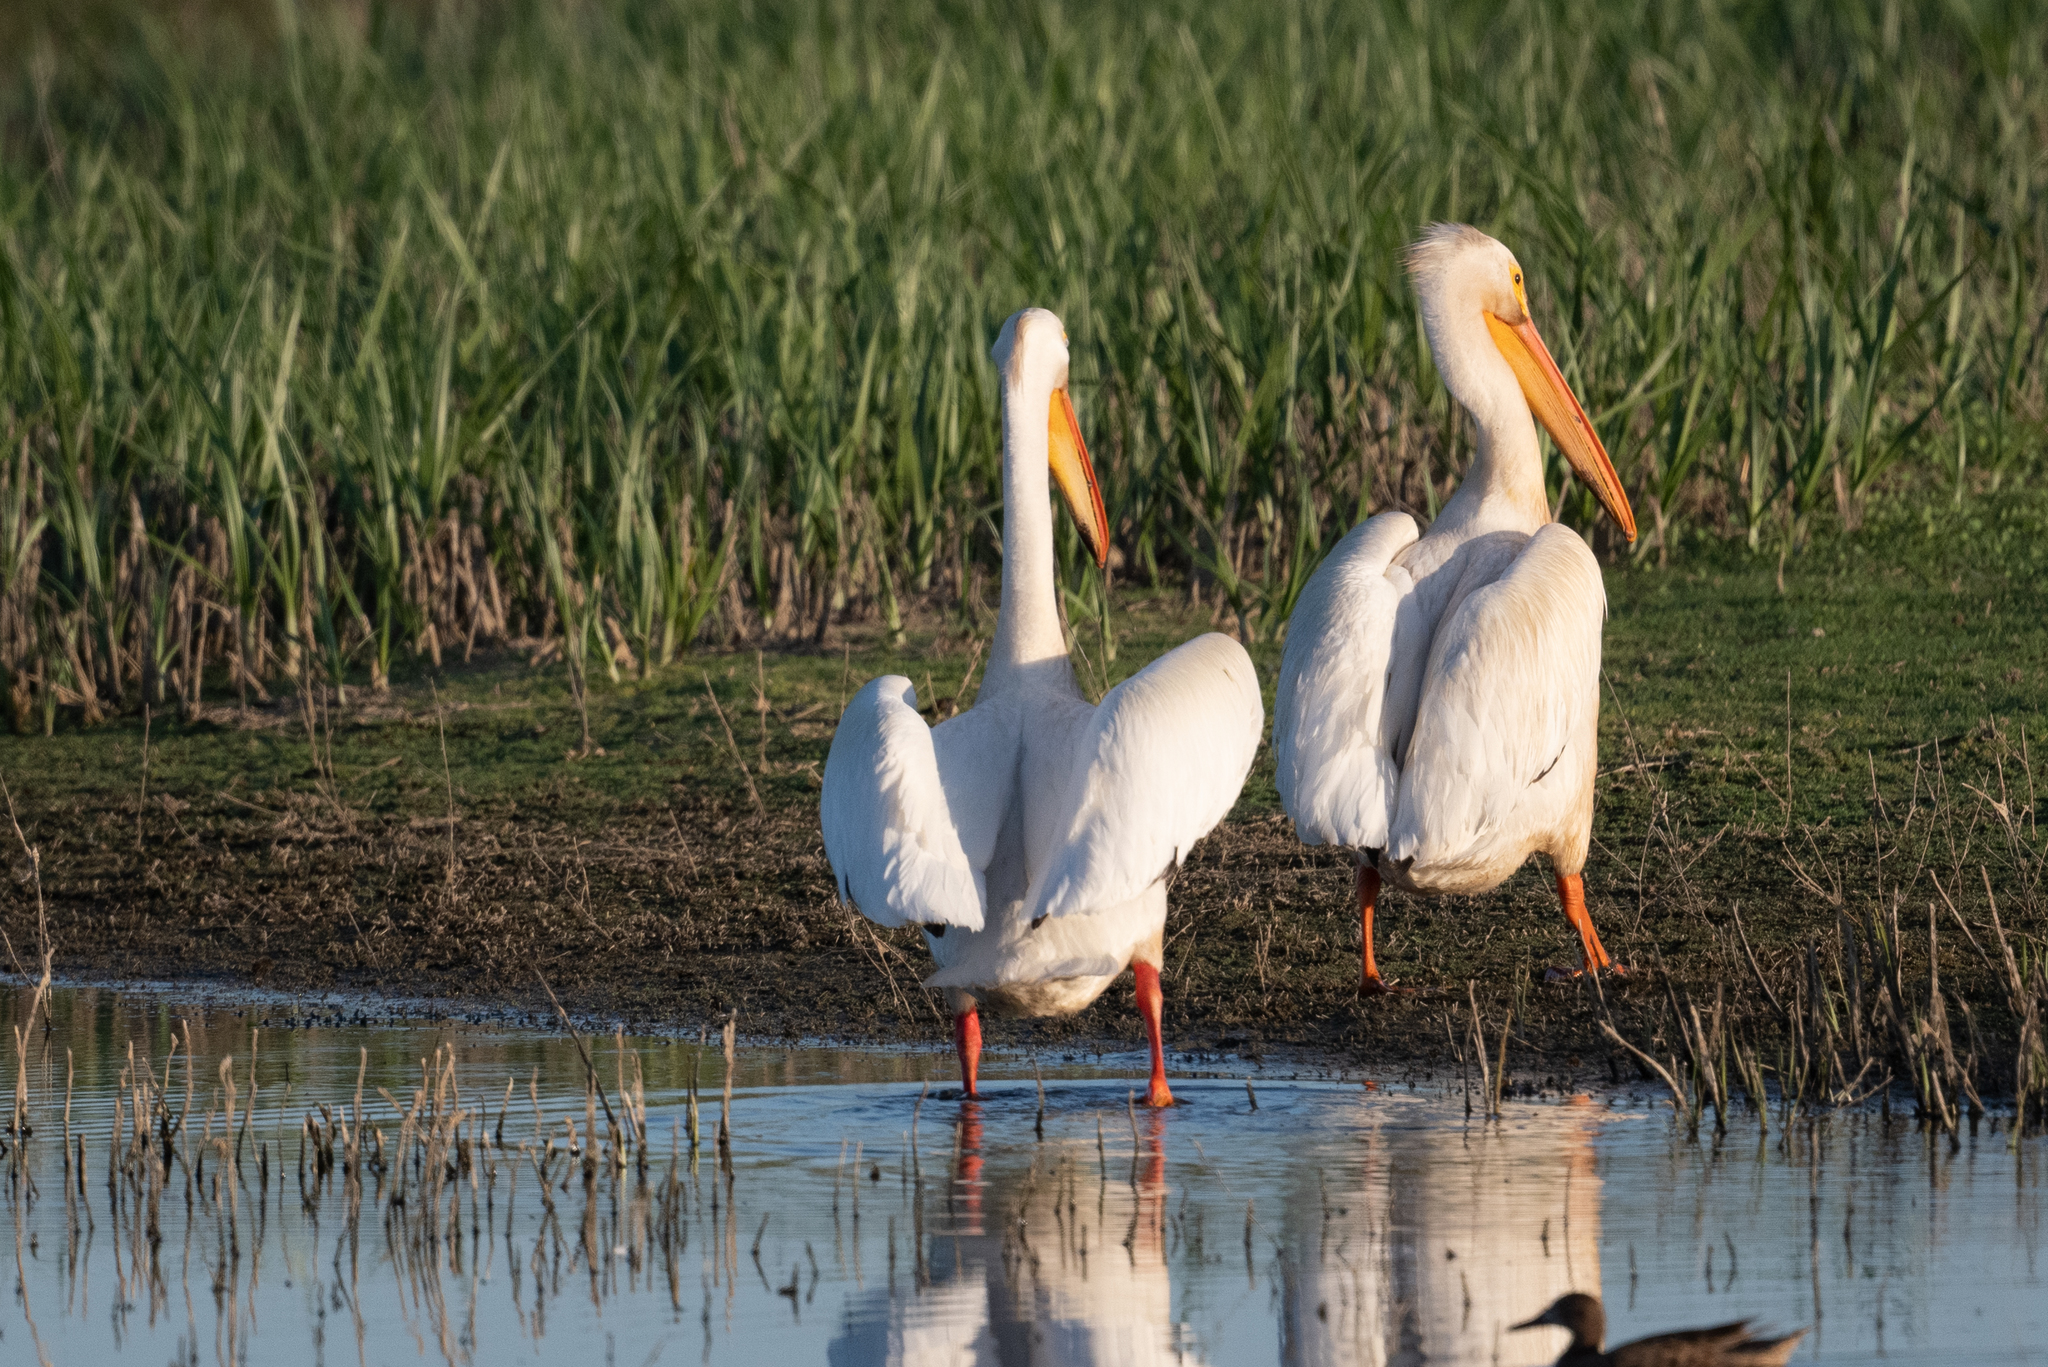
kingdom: Animalia
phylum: Chordata
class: Aves
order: Pelecaniformes
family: Pelecanidae
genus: Pelecanus
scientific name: Pelecanus erythrorhynchos
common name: American white pelican
